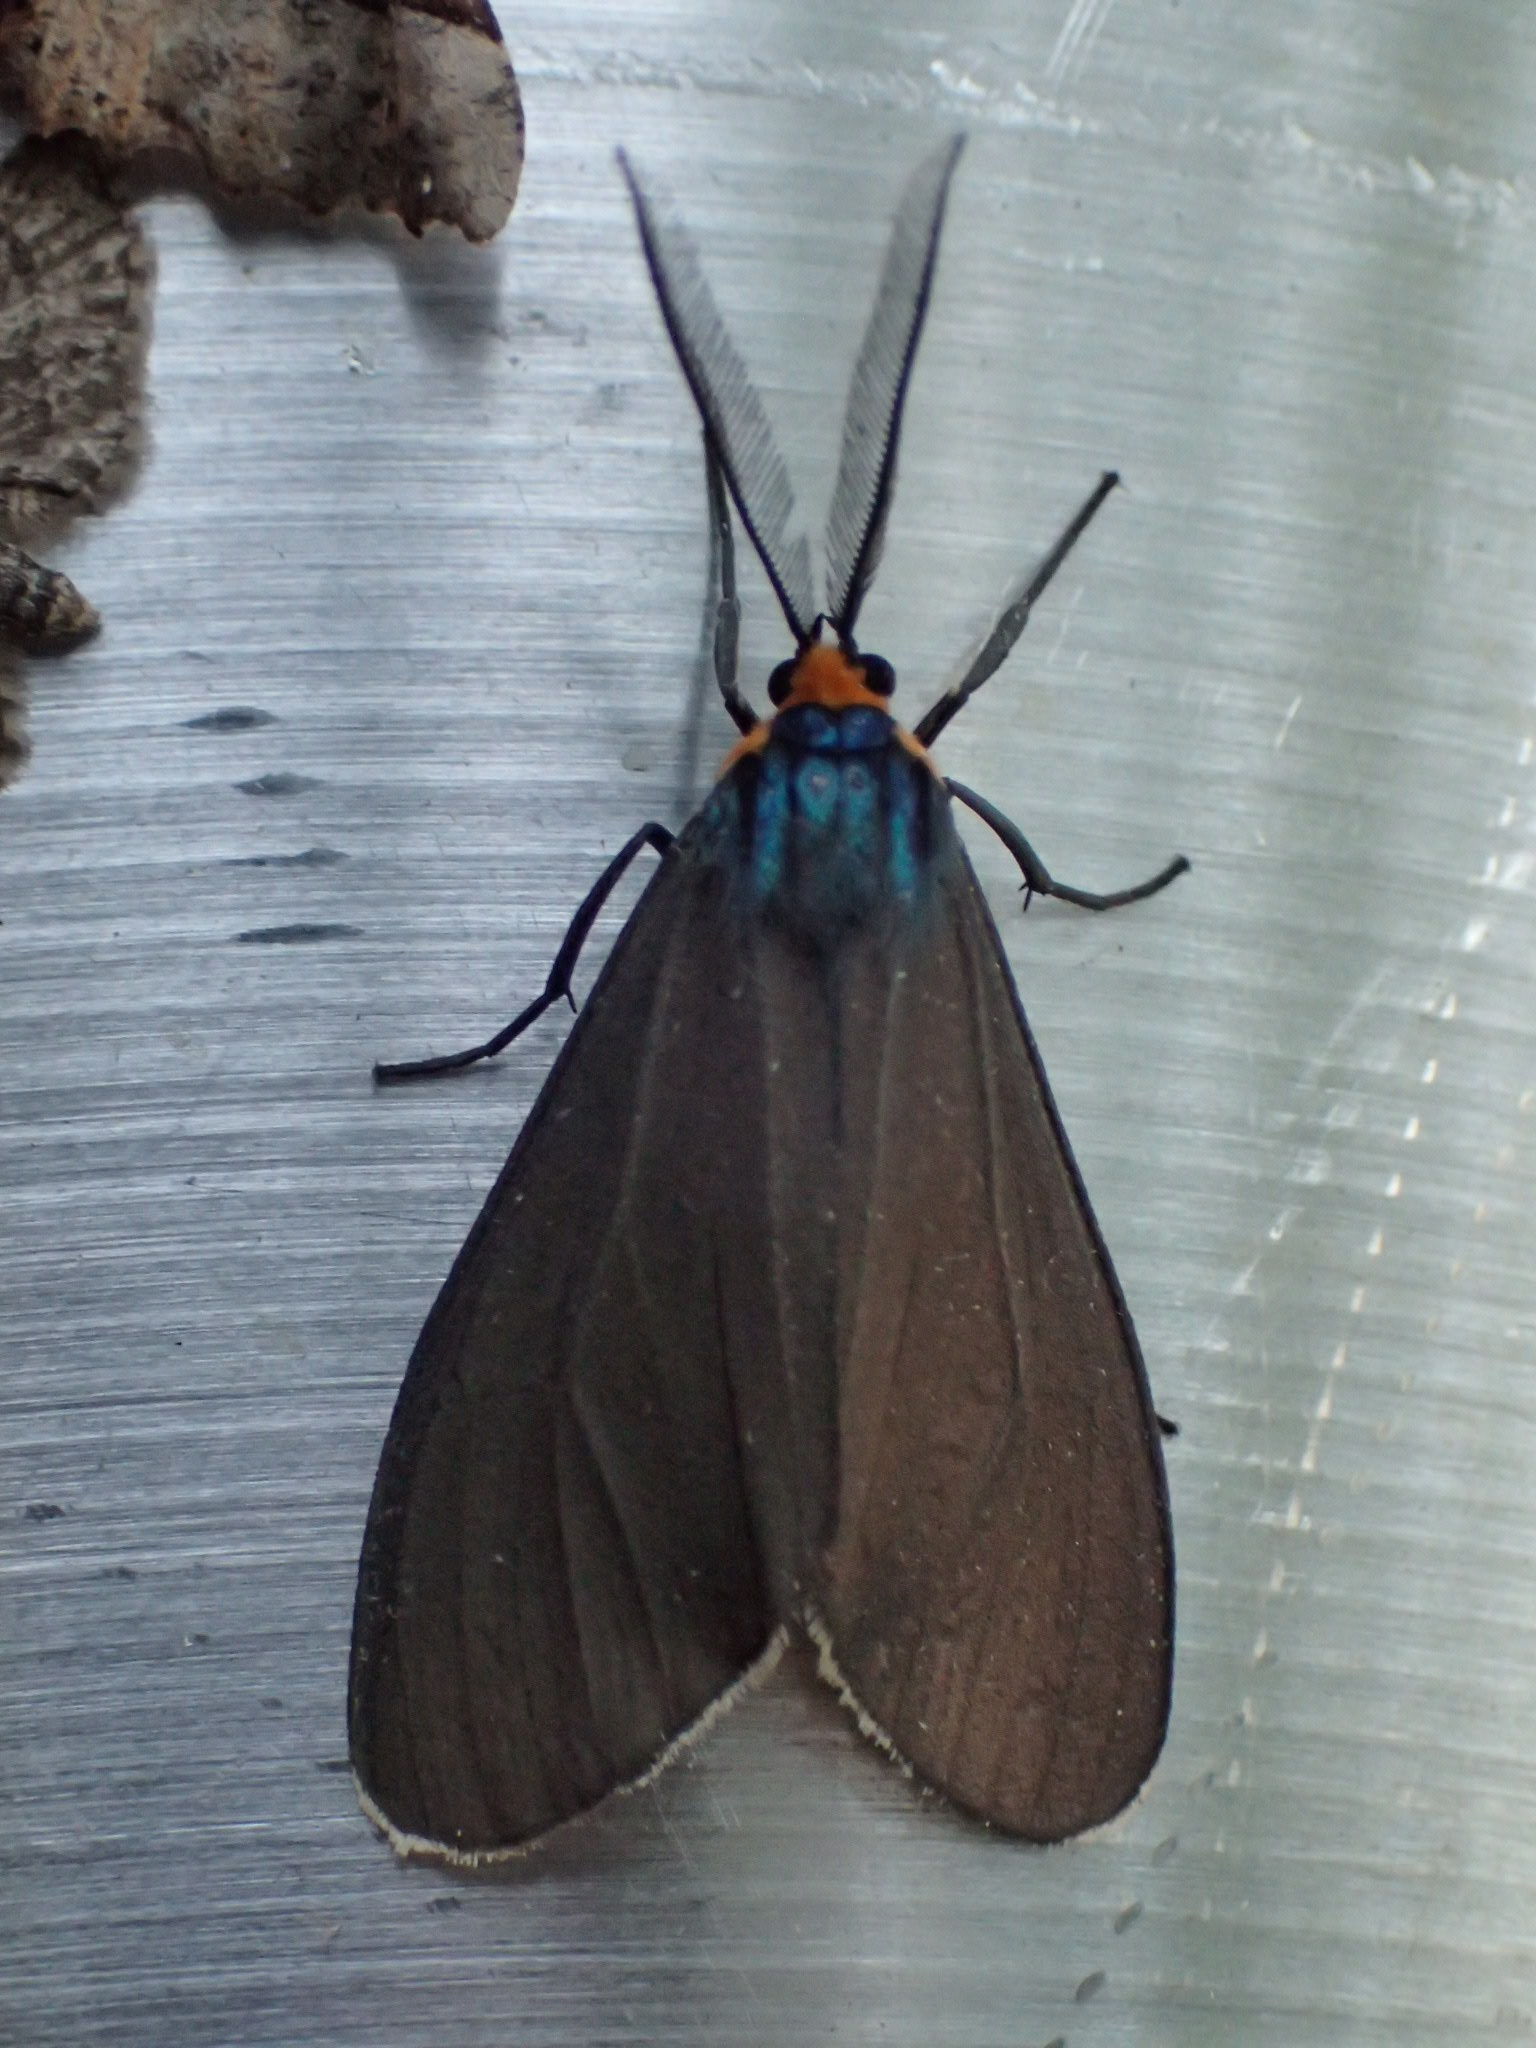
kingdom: Animalia
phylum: Arthropoda
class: Insecta
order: Lepidoptera
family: Erebidae
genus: Ctenucha
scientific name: Ctenucha virginica
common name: Virginia ctenucha moth
